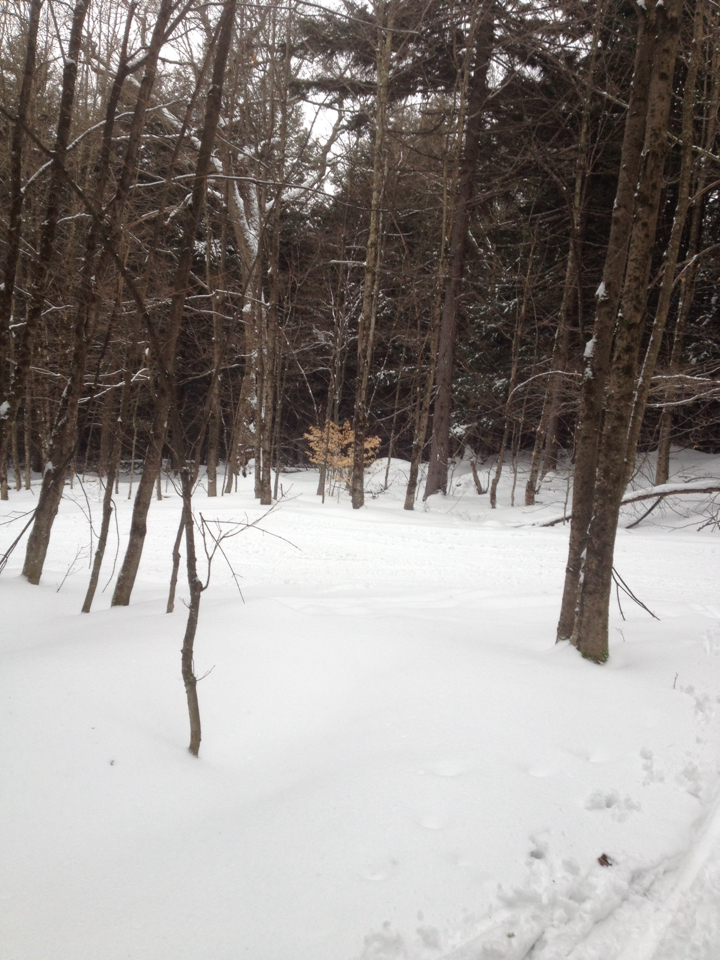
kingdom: Plantae
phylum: Tracheophyta
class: Magnoliopsida
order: Fagales
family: Fagaceae
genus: Fagus
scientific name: Fagus grandifolia
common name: American beech
